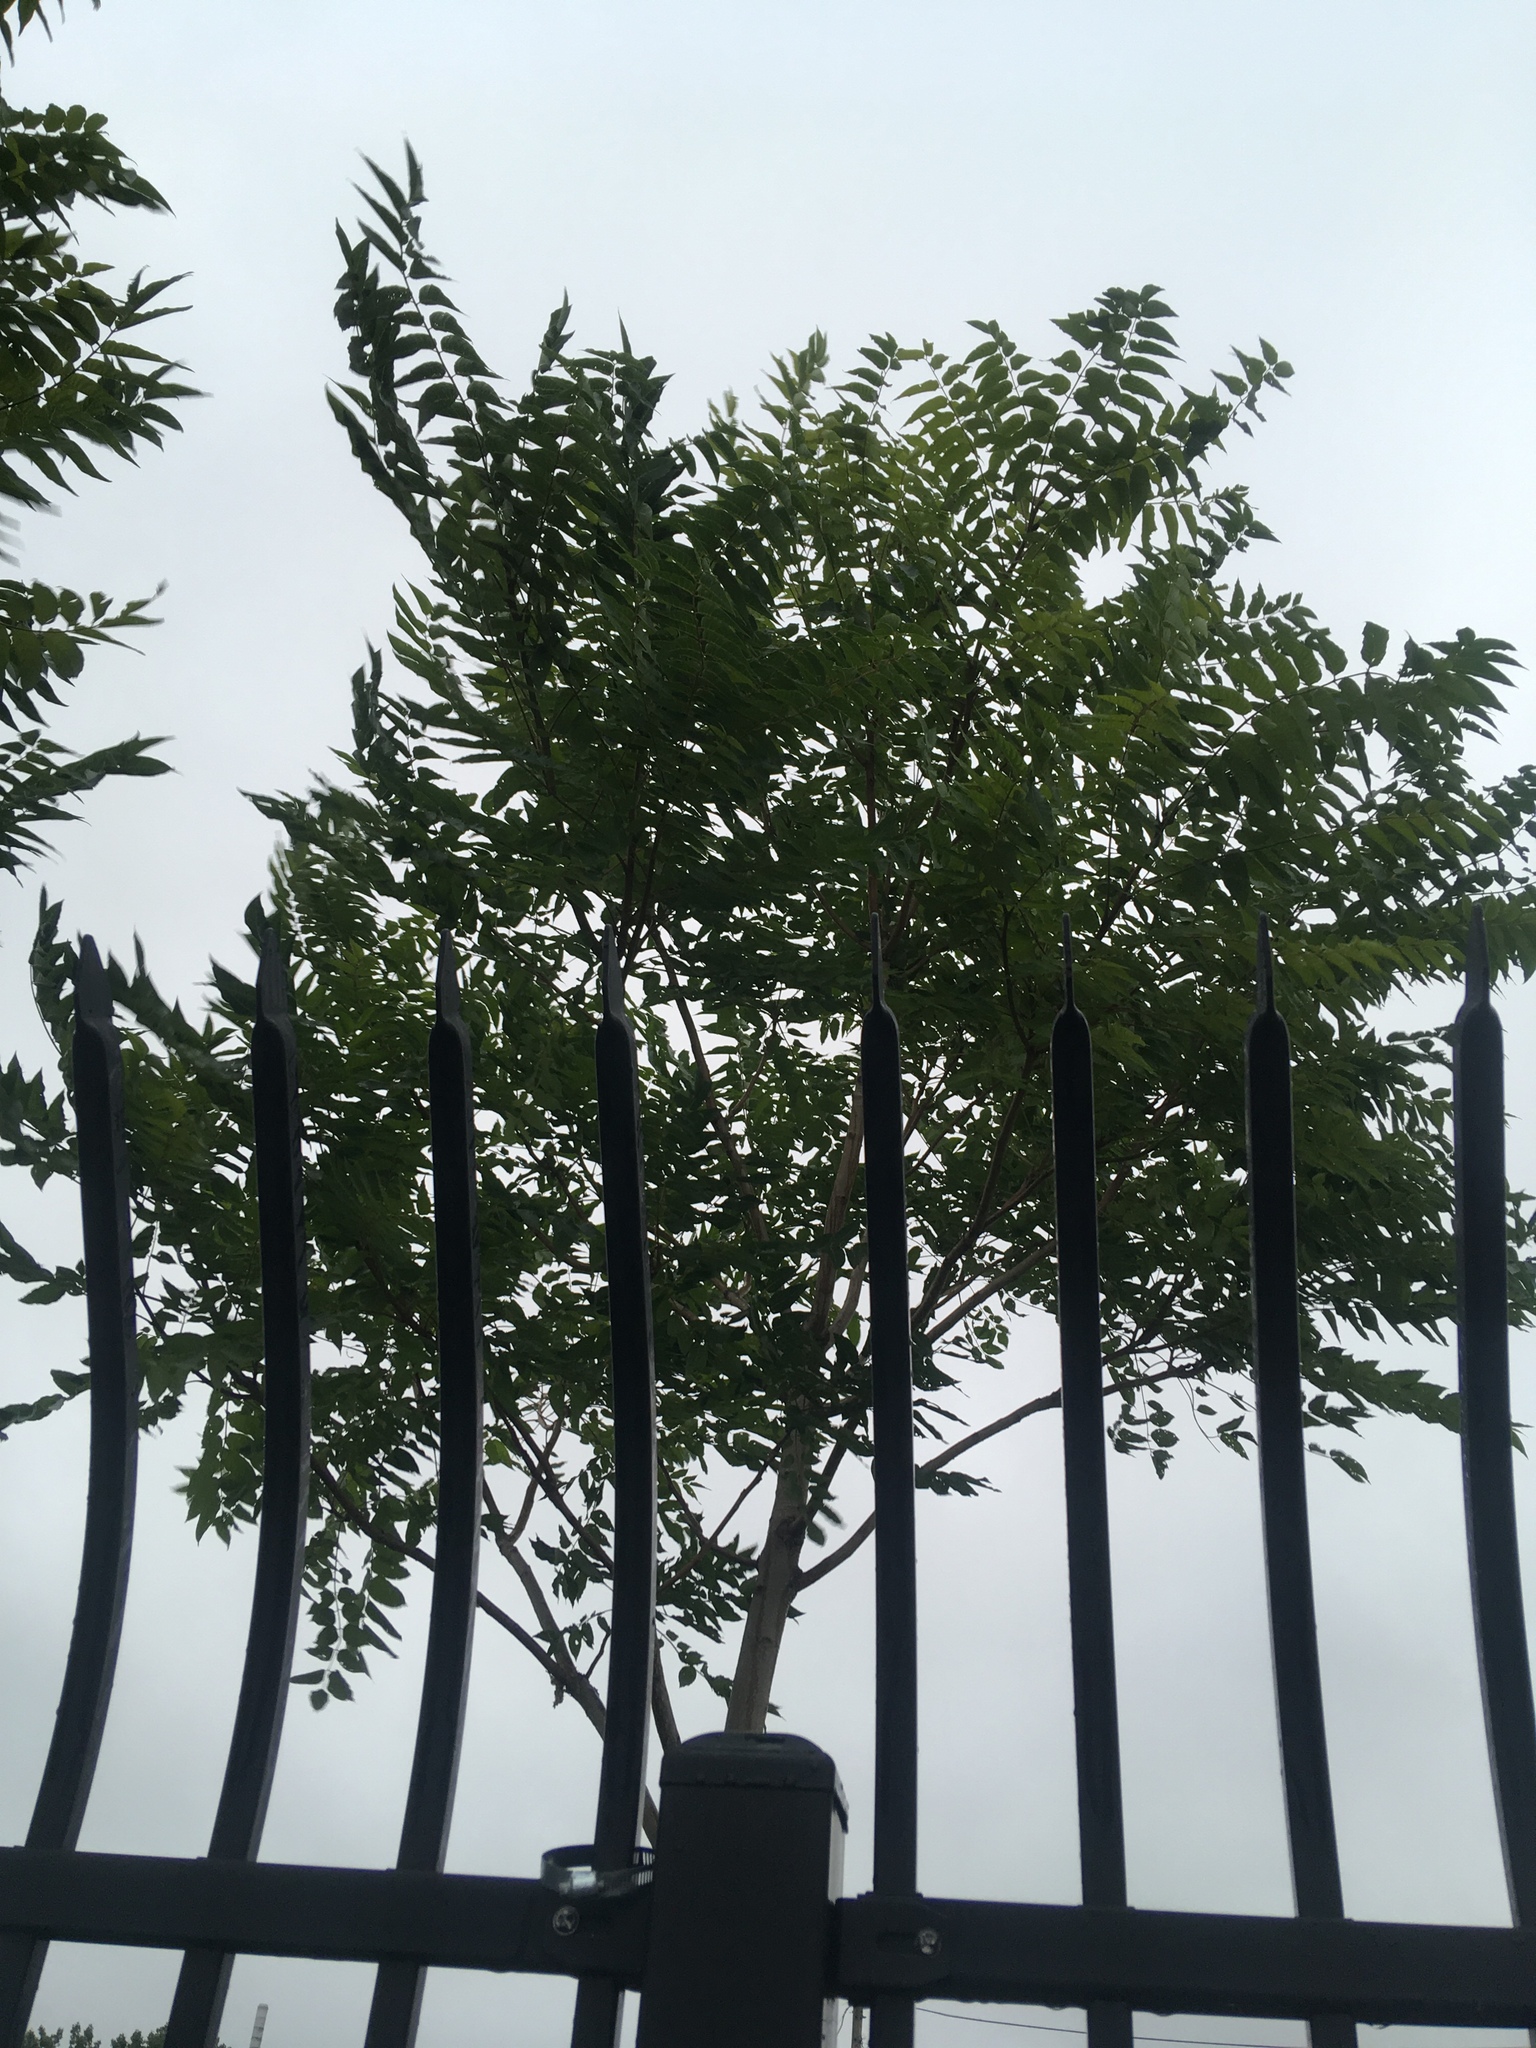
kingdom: Plantae
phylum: Tracheophyta
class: Magnoliopsida
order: Sapindales
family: Simaroubaceae
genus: Ailanthus
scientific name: Ailanthus altissima
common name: Tree-of-heaven
